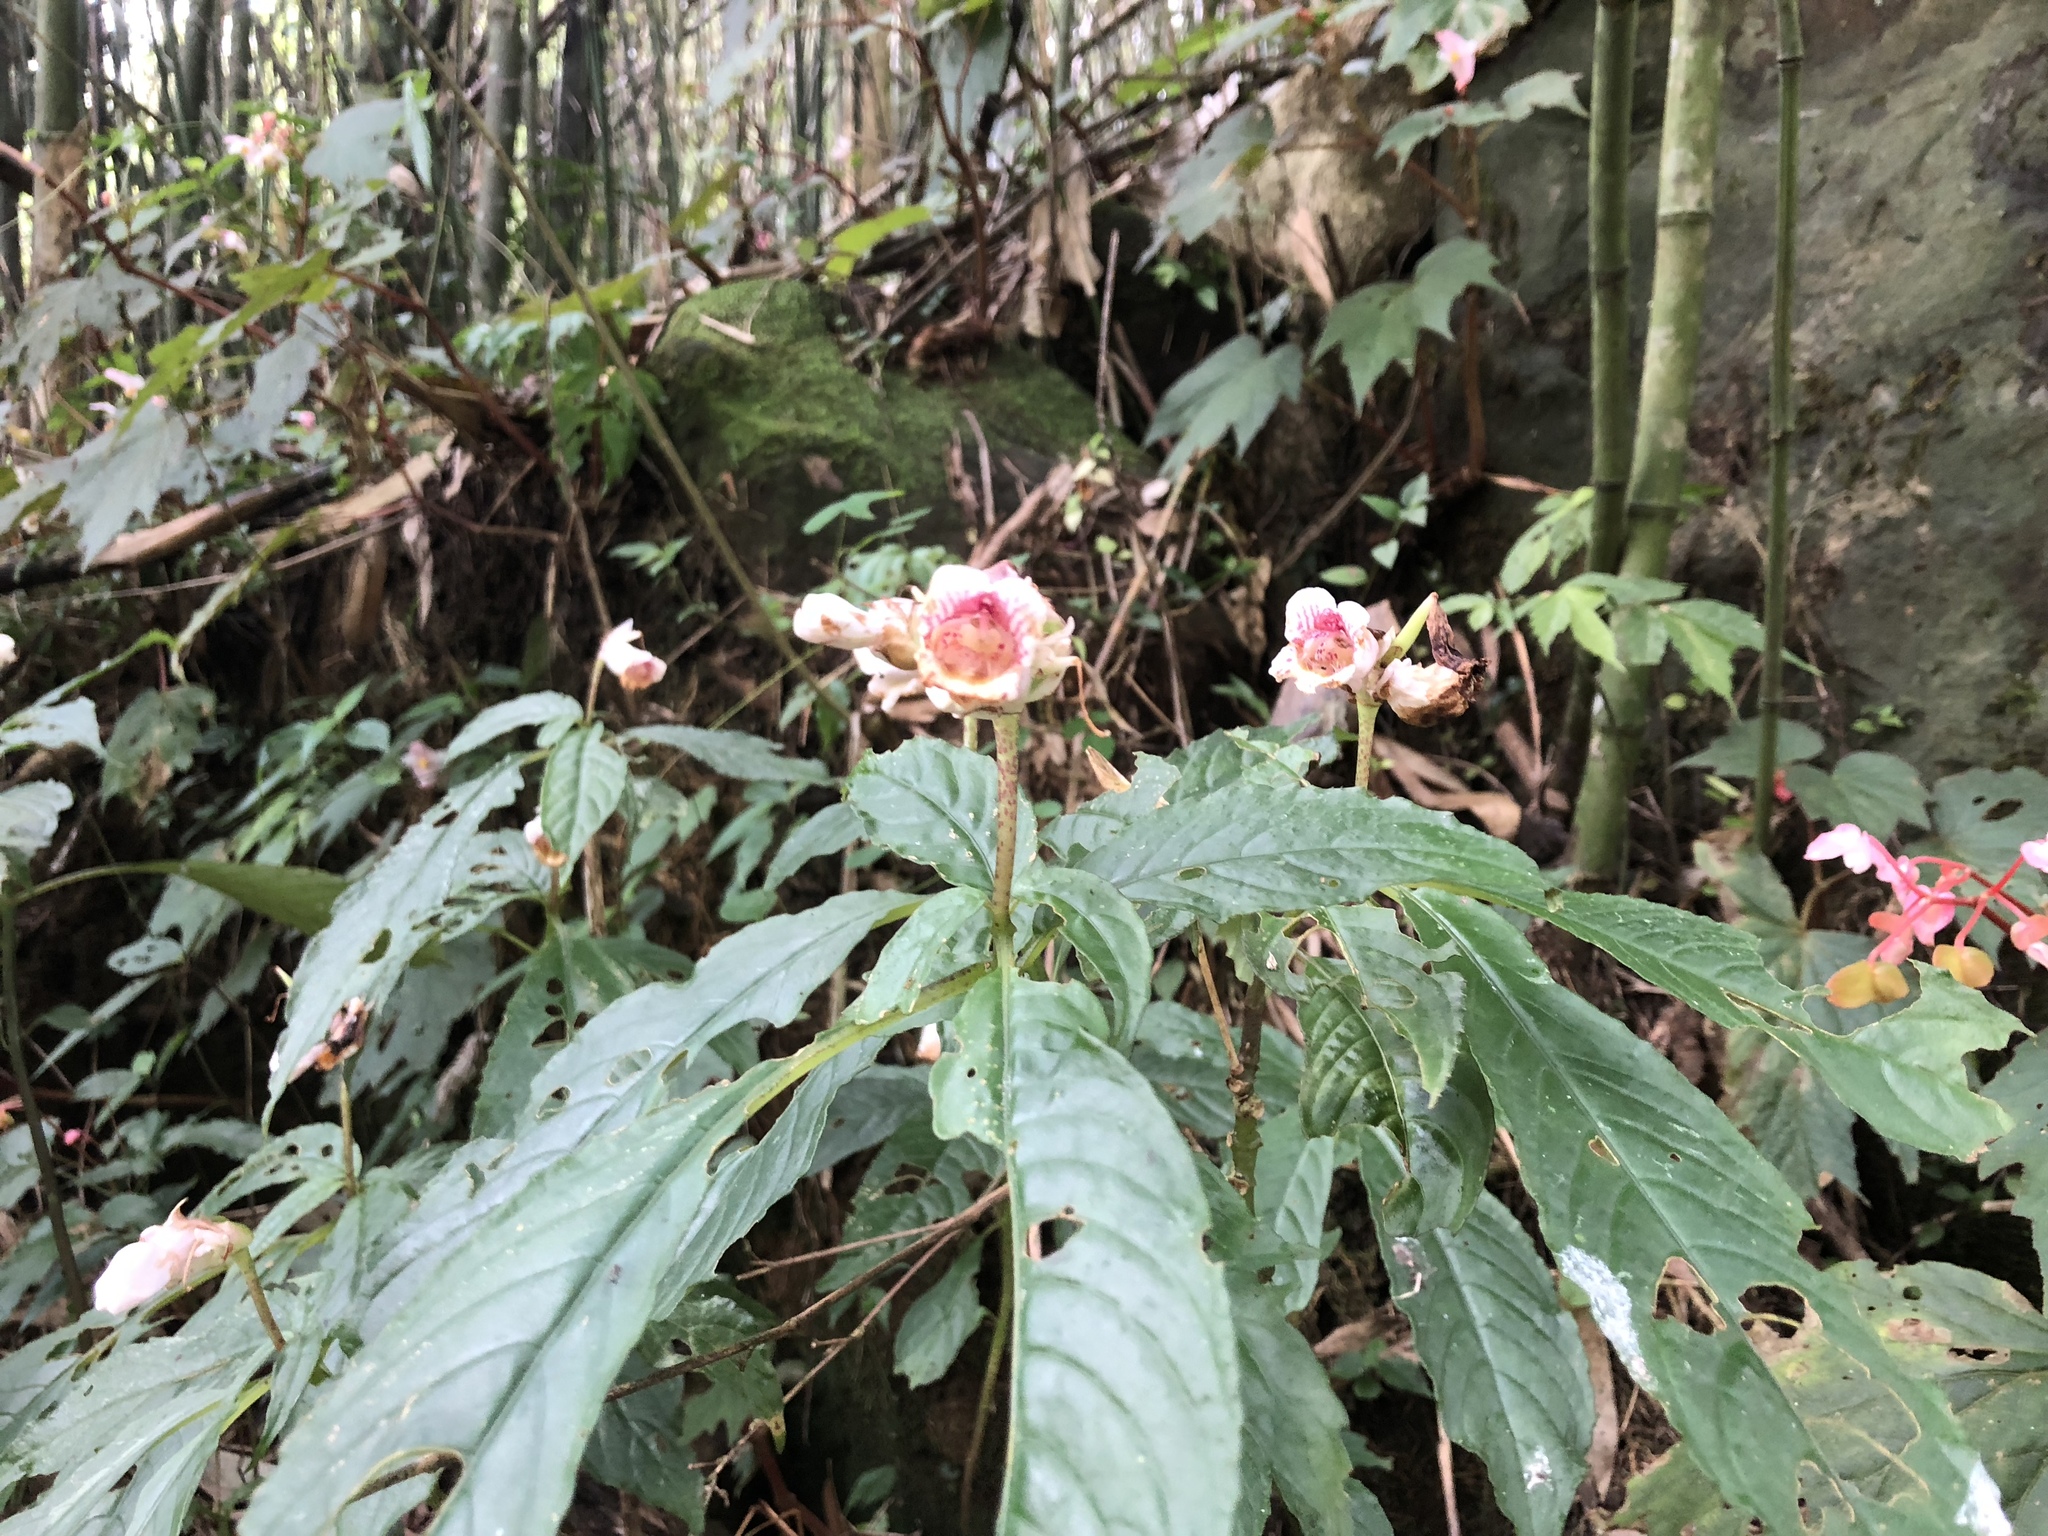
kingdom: Plantae
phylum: Tracheophyta
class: Magnoliopsida
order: Lamiales
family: Gesneriaceae
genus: Hemiboea
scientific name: Hemiboea bicornuta
